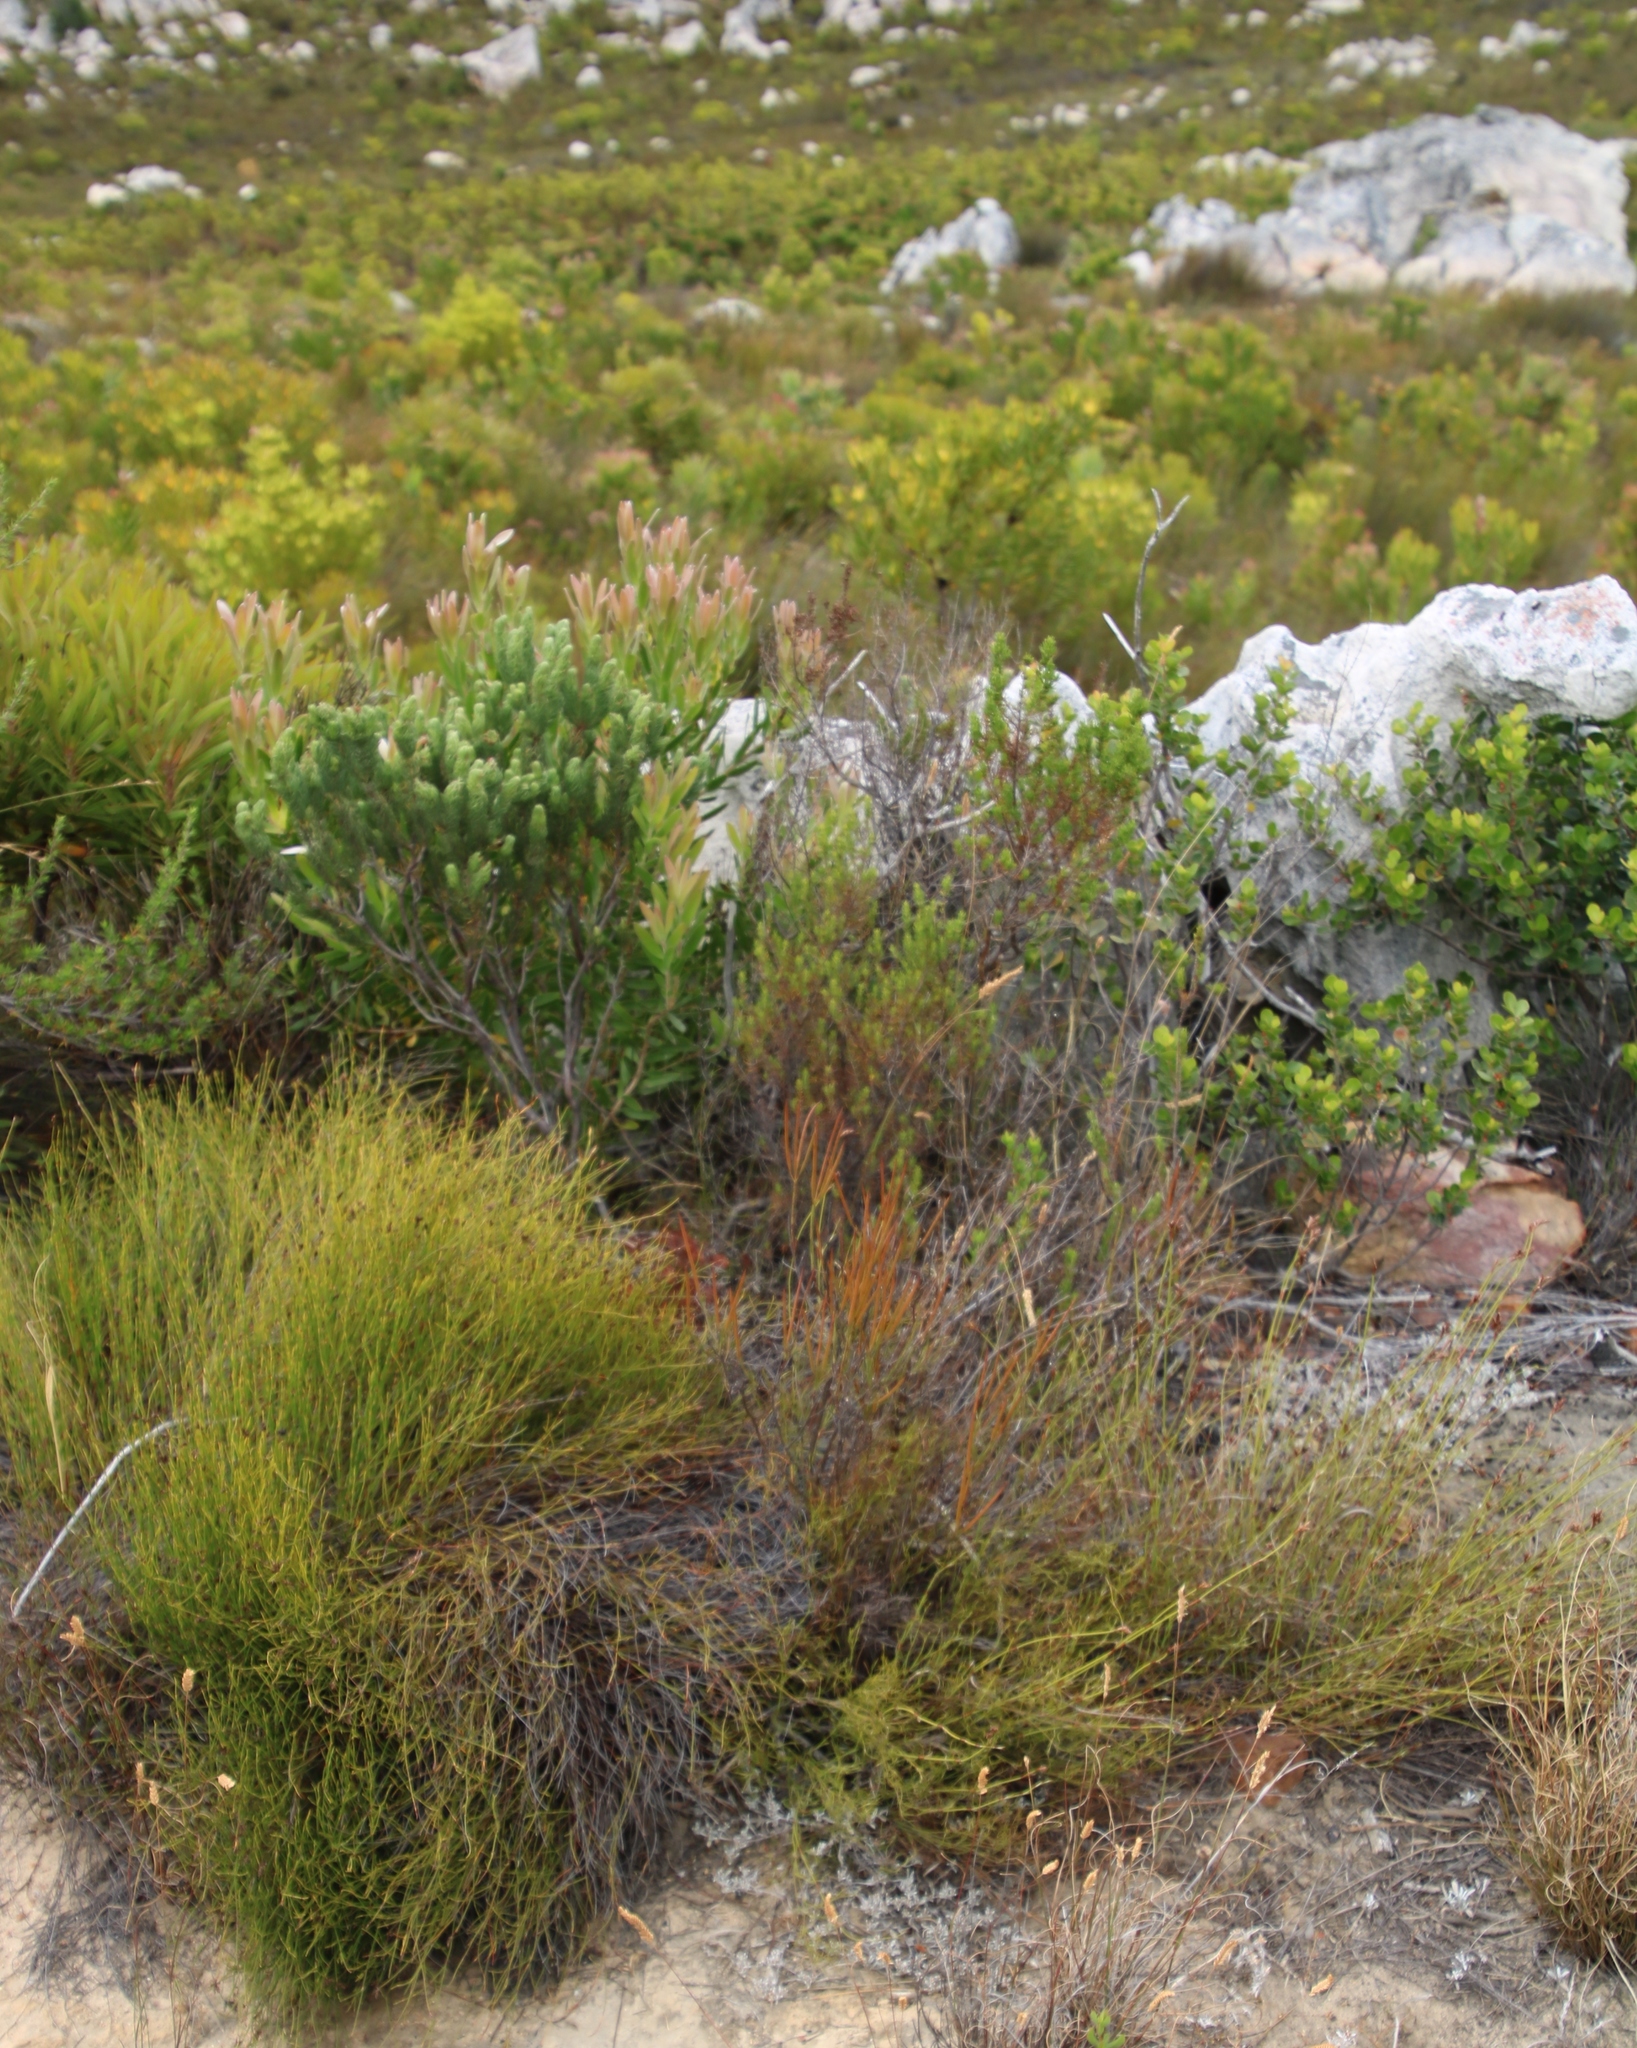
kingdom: Plantae
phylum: Tracheophyta
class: Magnoliopsida
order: Brassicales
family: Brassicaceae
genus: Heliophila
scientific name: Heliophila scoparia
